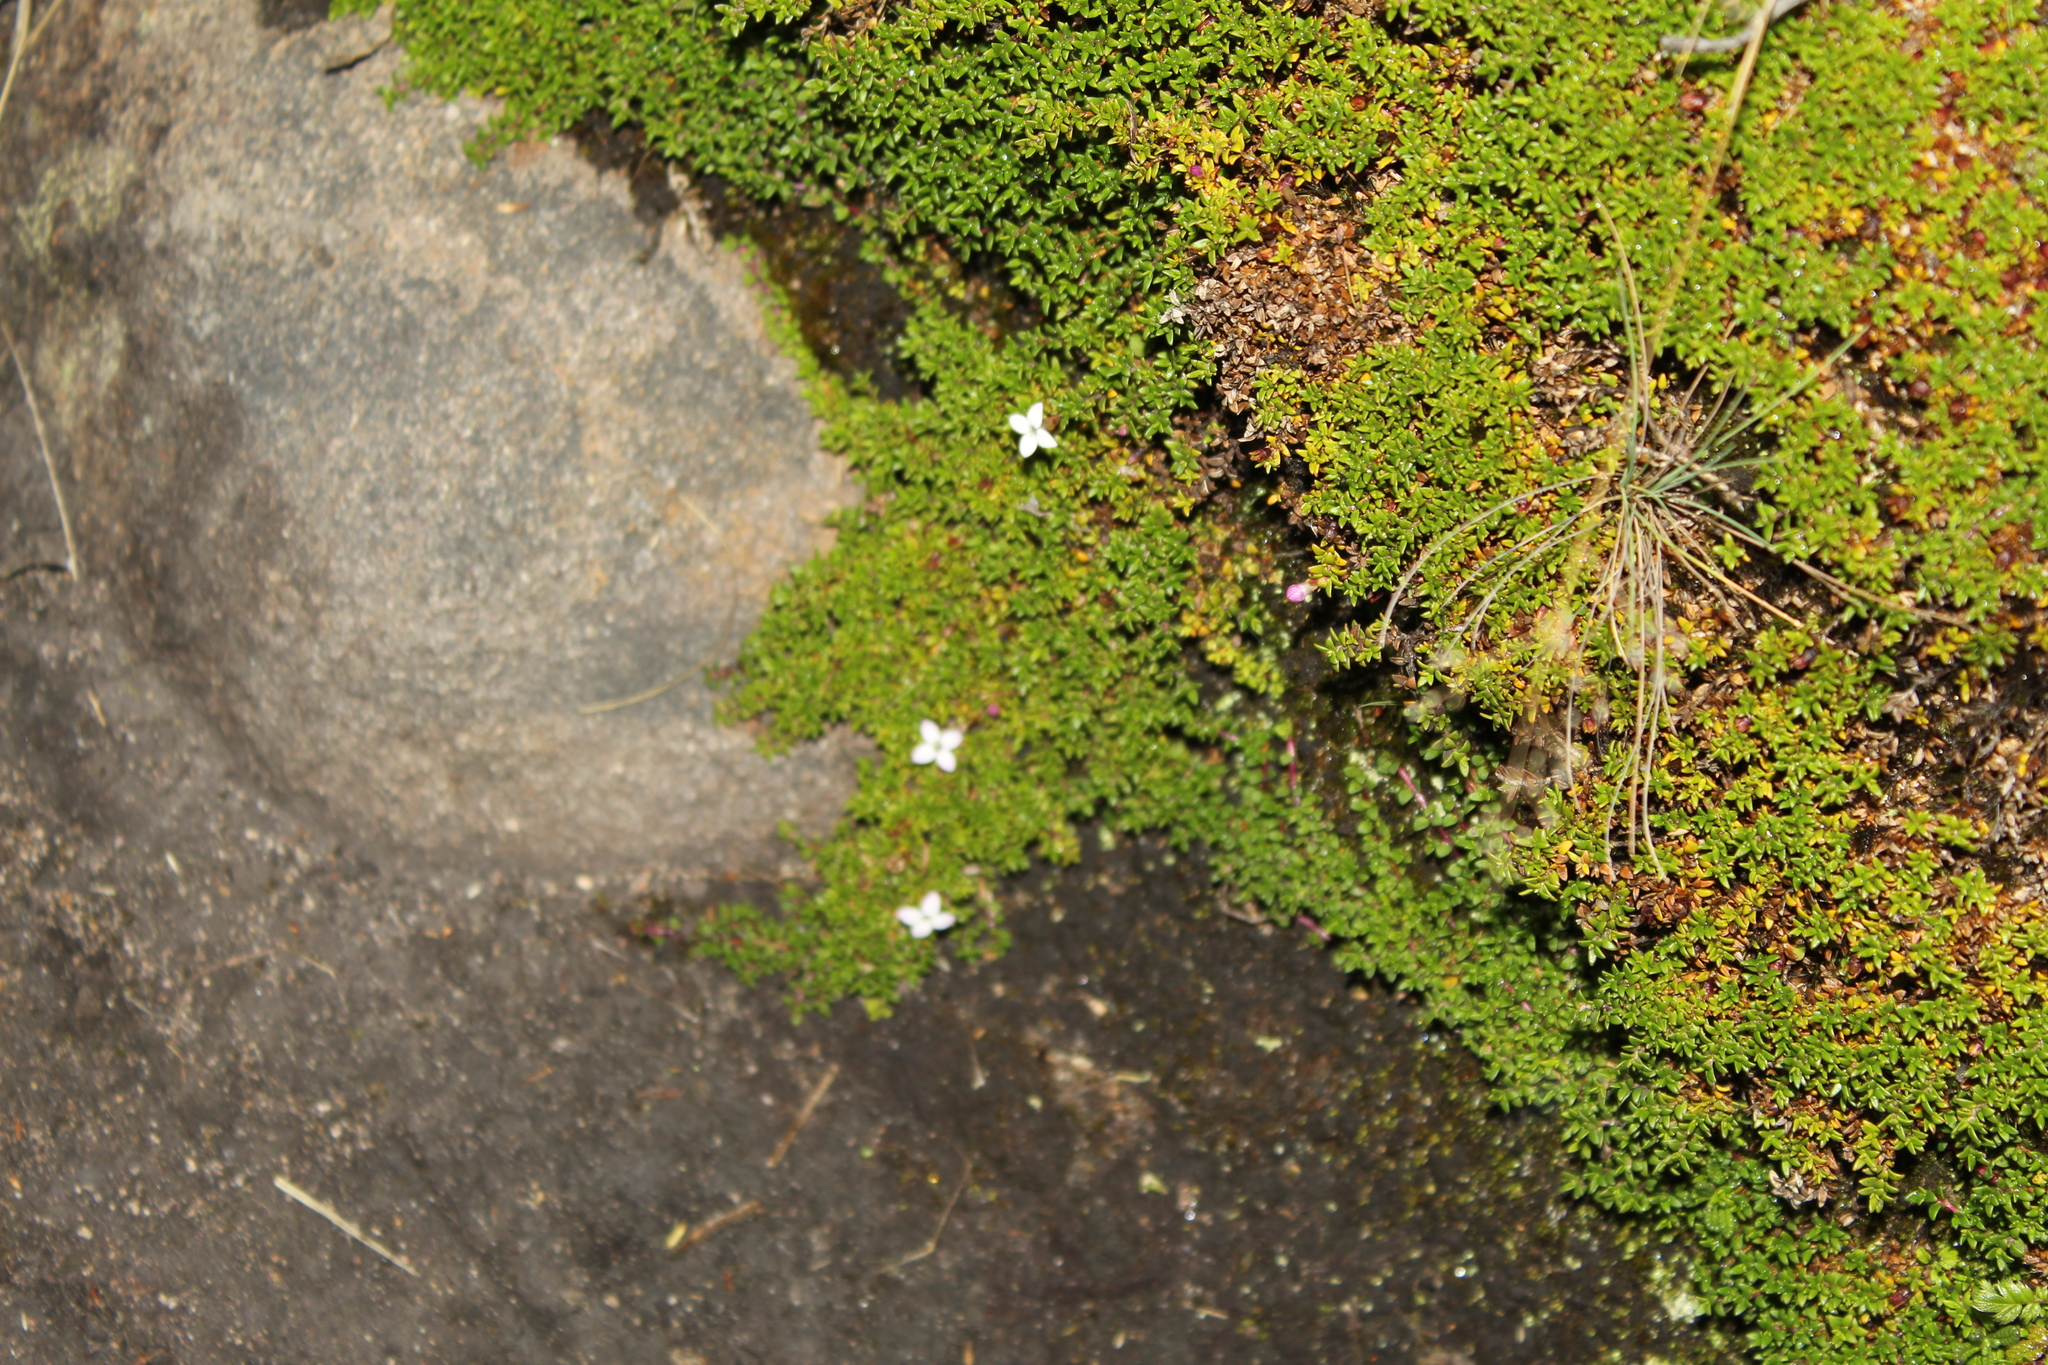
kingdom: Plantae
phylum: Tracheophyta
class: Magnoliopsida
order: Gentianales
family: Rubiaceae
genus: Arcytophyllum
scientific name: Arcytophyllum muticum
